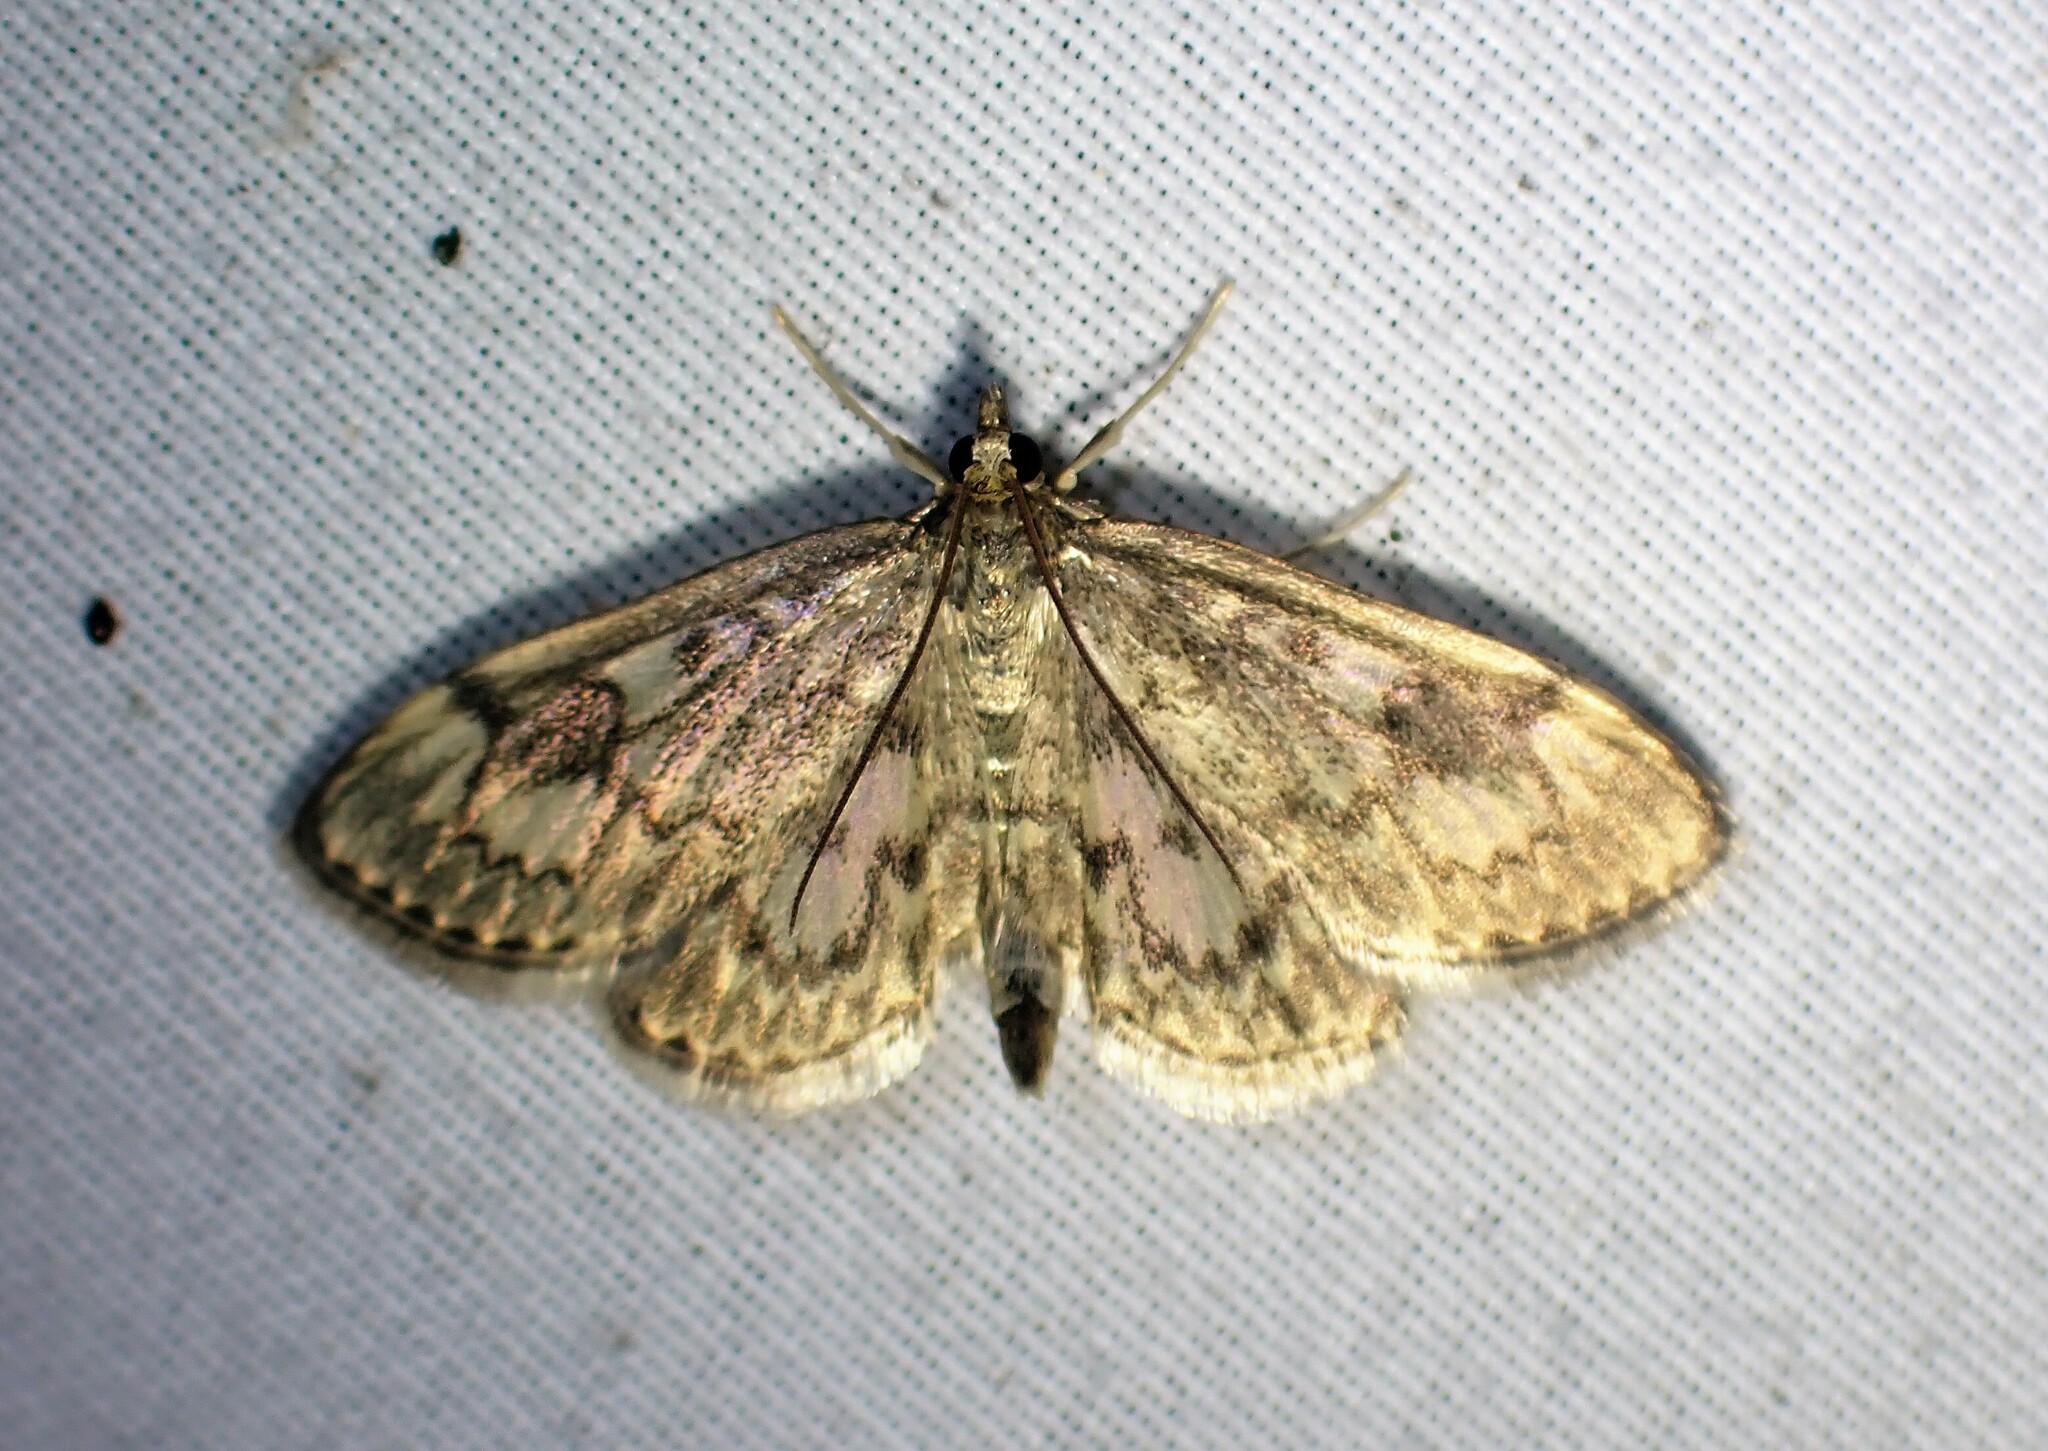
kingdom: Animalia
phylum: Arthropoda
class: Insecta
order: Lepidoptera
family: Crambidae
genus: Anania
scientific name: Anania
